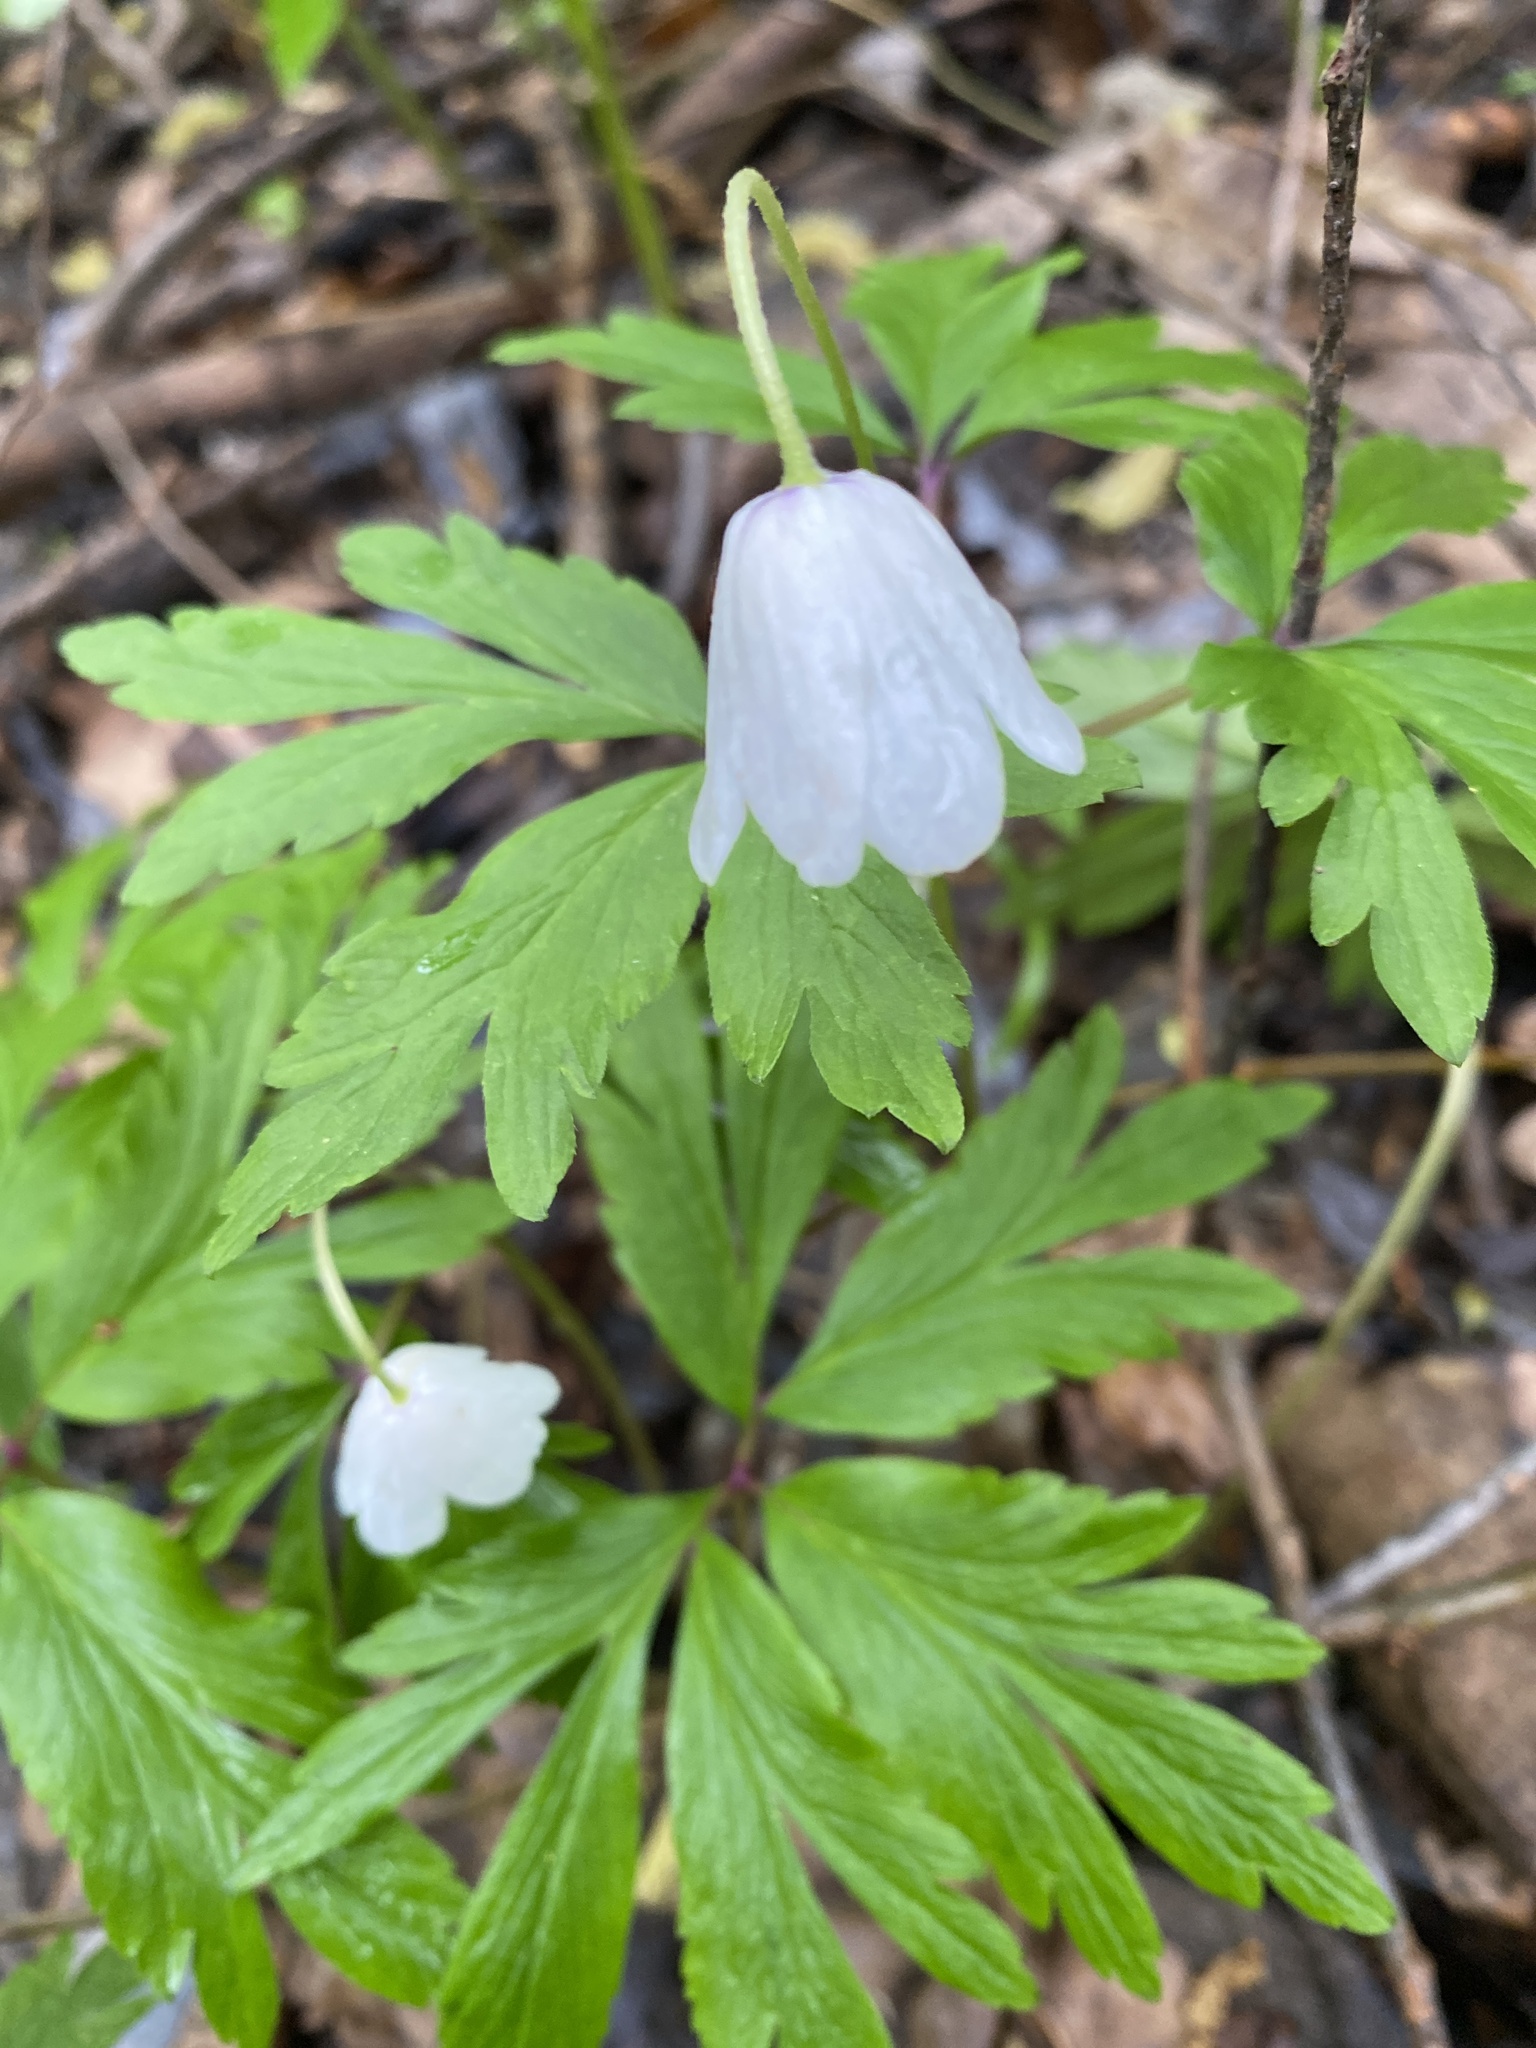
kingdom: Plantae
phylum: Tracheophyta
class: Magnoliopsida
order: Ranunculales
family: Ranunculaceae
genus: Anemone
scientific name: Anemone nemorosa
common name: Wood anemone
